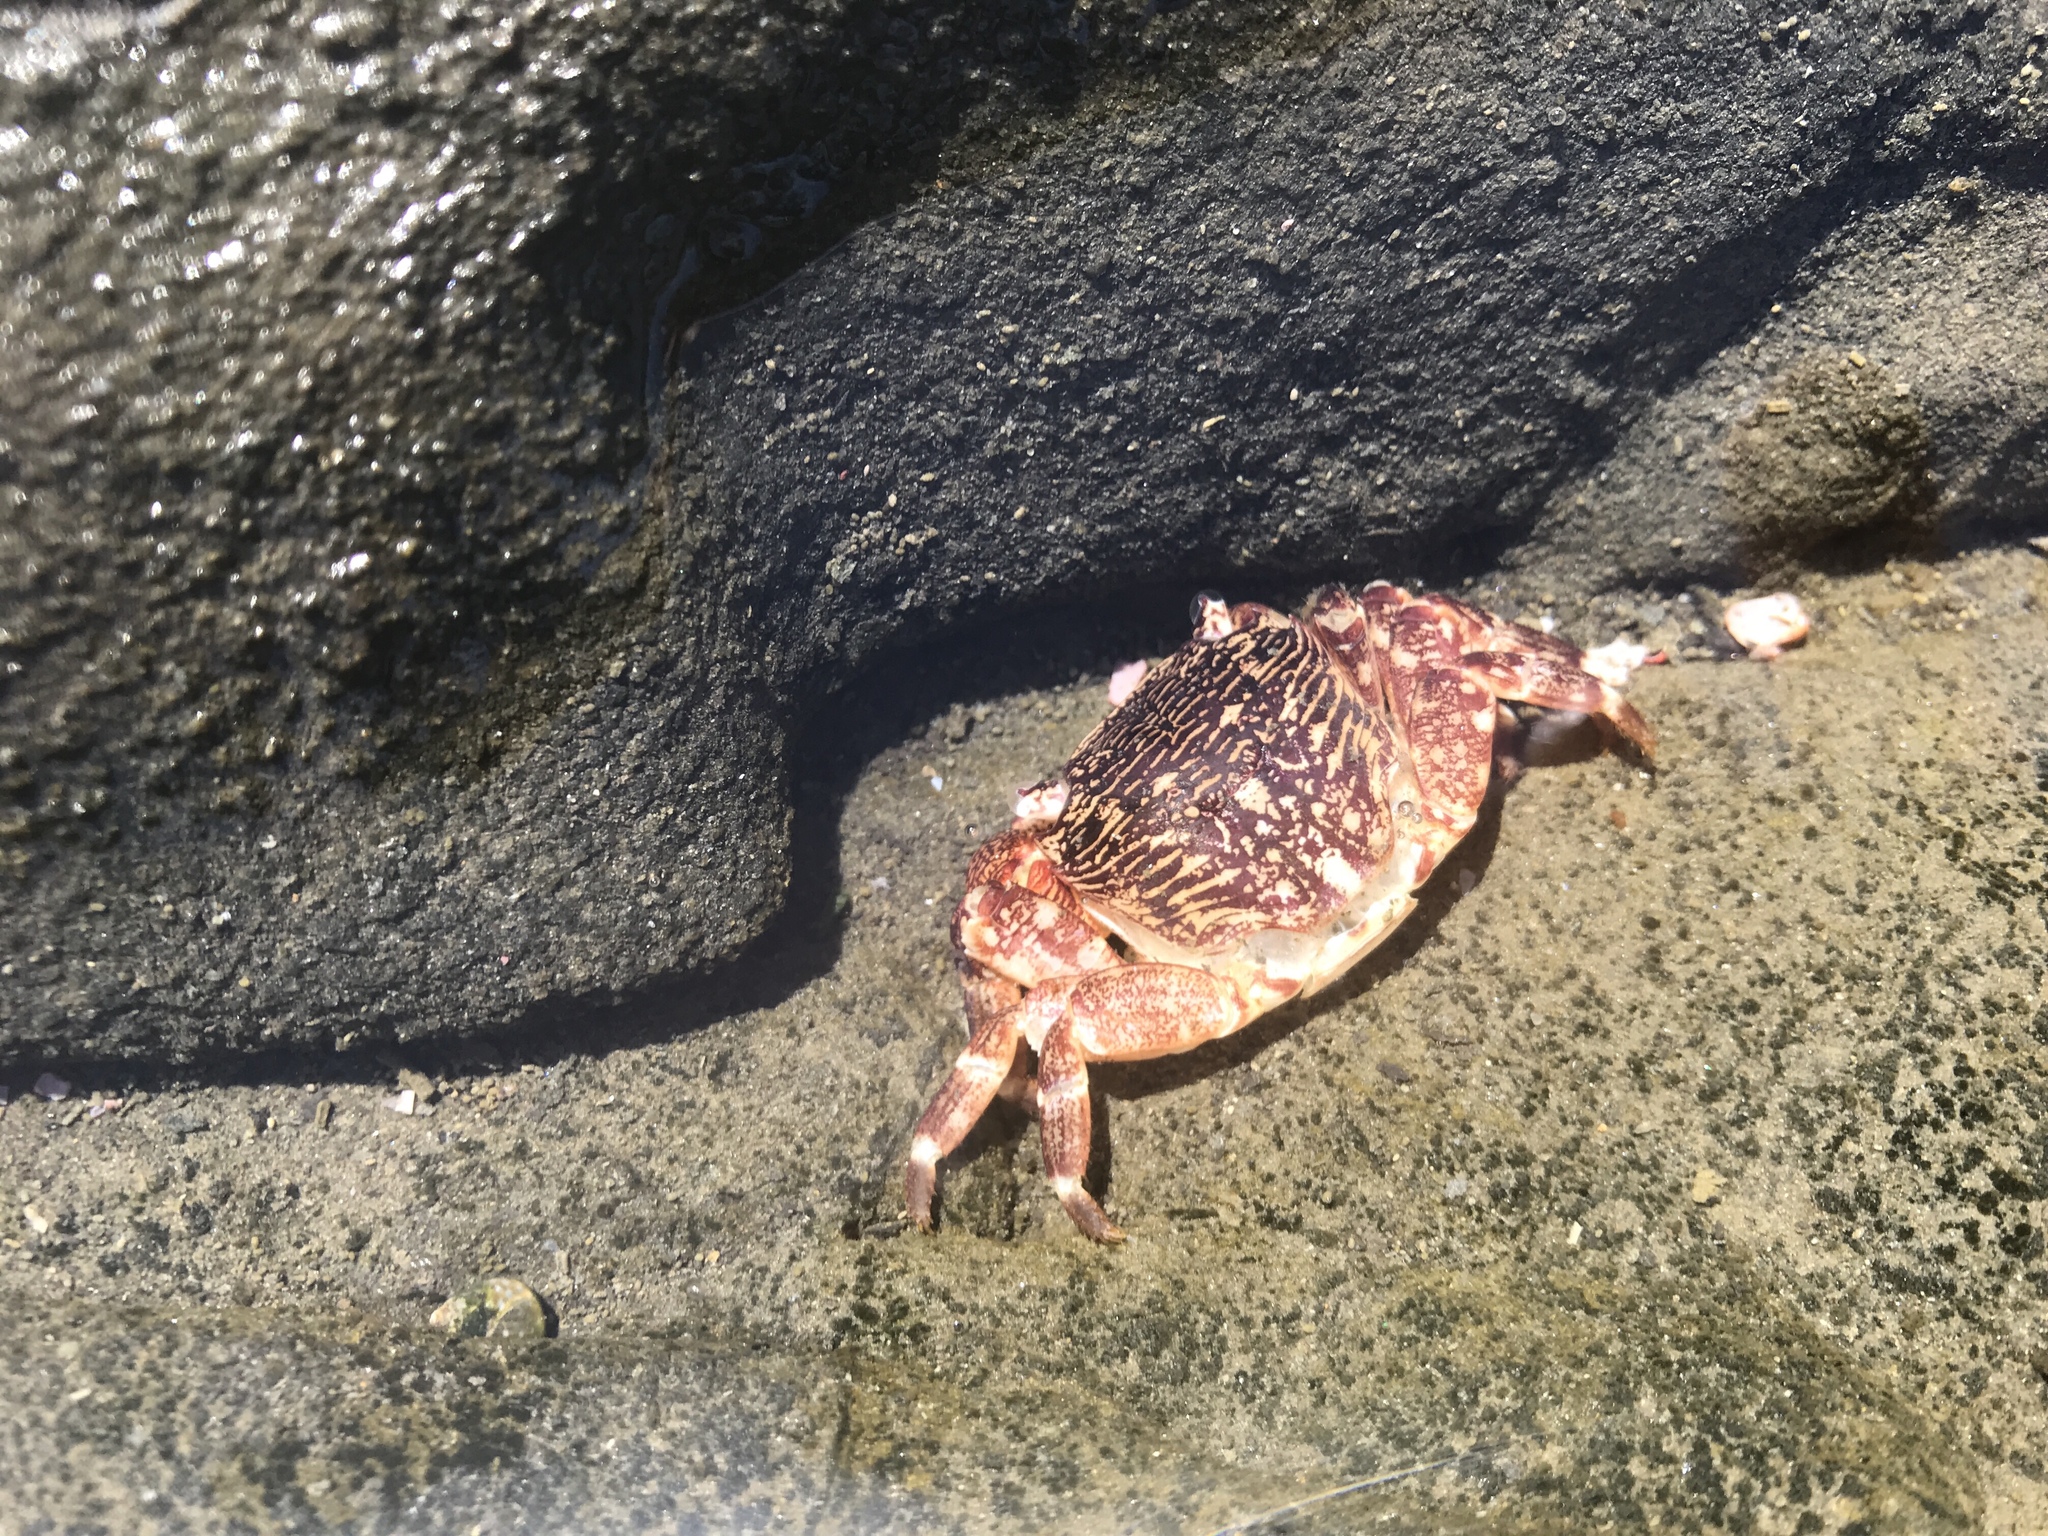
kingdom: Animalia
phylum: Arthropoda
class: Malacostraca
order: Decapoda
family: Grapsidae
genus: Pachygrapsus
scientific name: Pachygrapsus crassipes
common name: Striped shore crab
